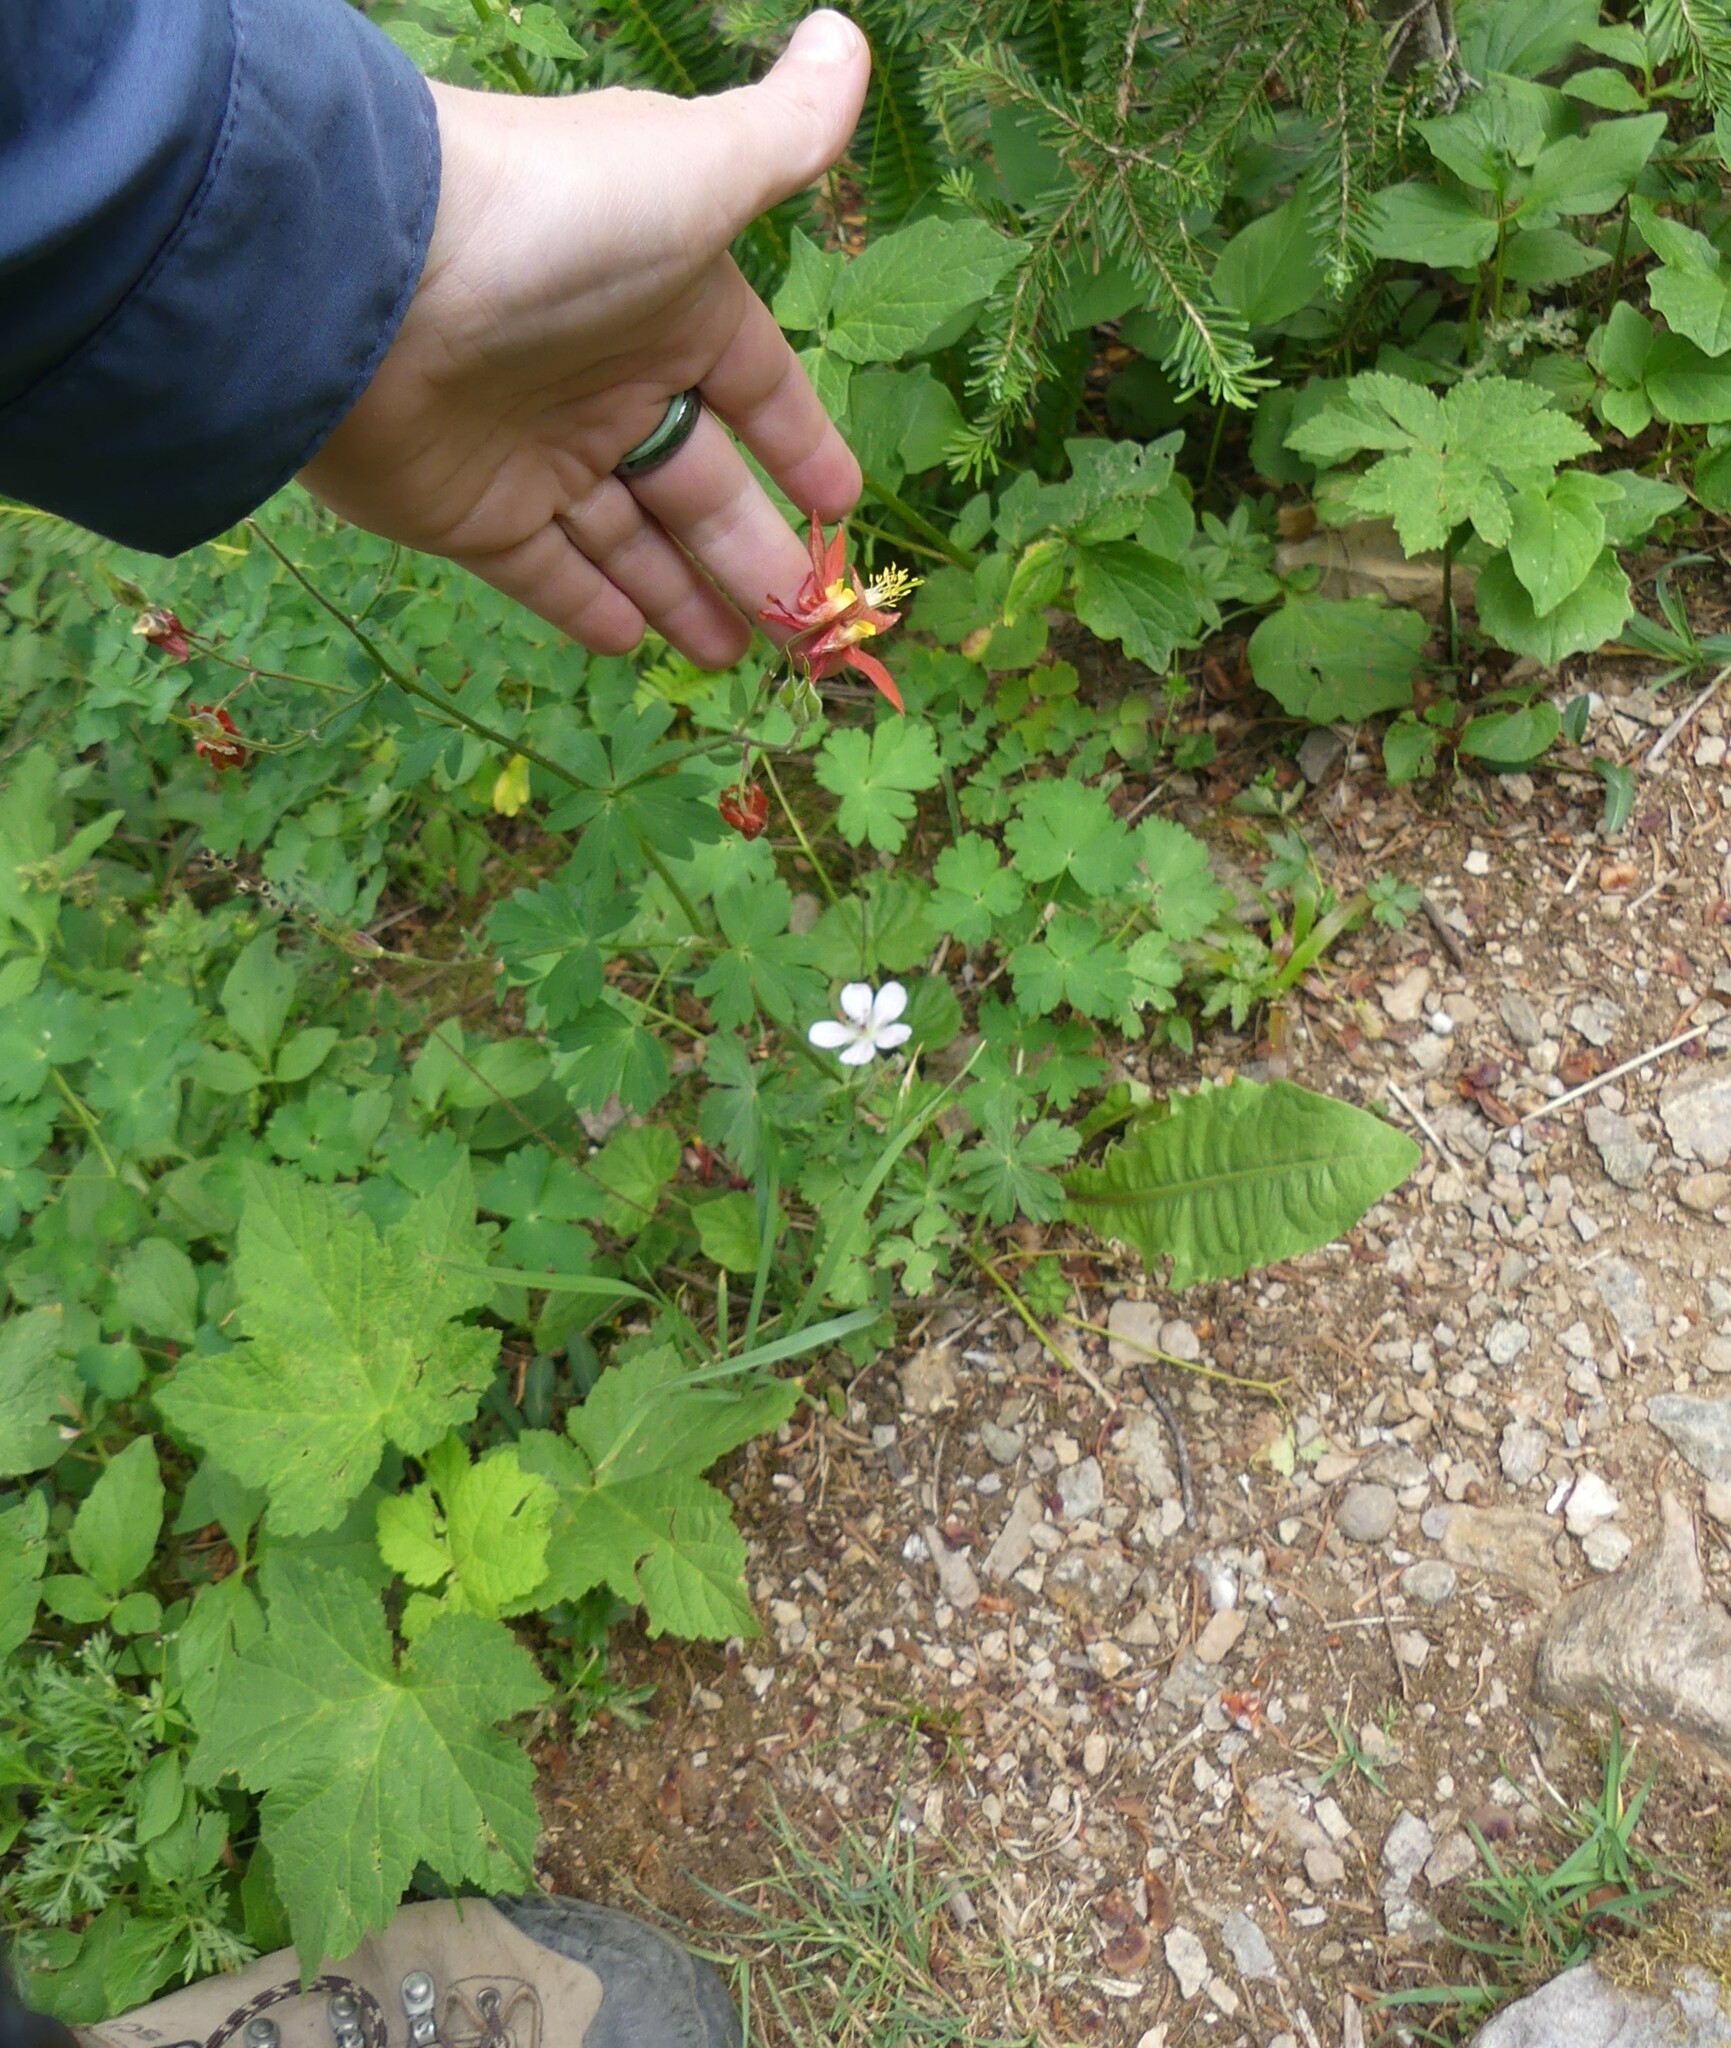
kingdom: Plantae
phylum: Tracheophyta
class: Magnoliopsida
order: Ranunculales
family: Ranunculaceae
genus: Aquilegia
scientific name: Aquilegia formosa
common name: Sitka columbine
